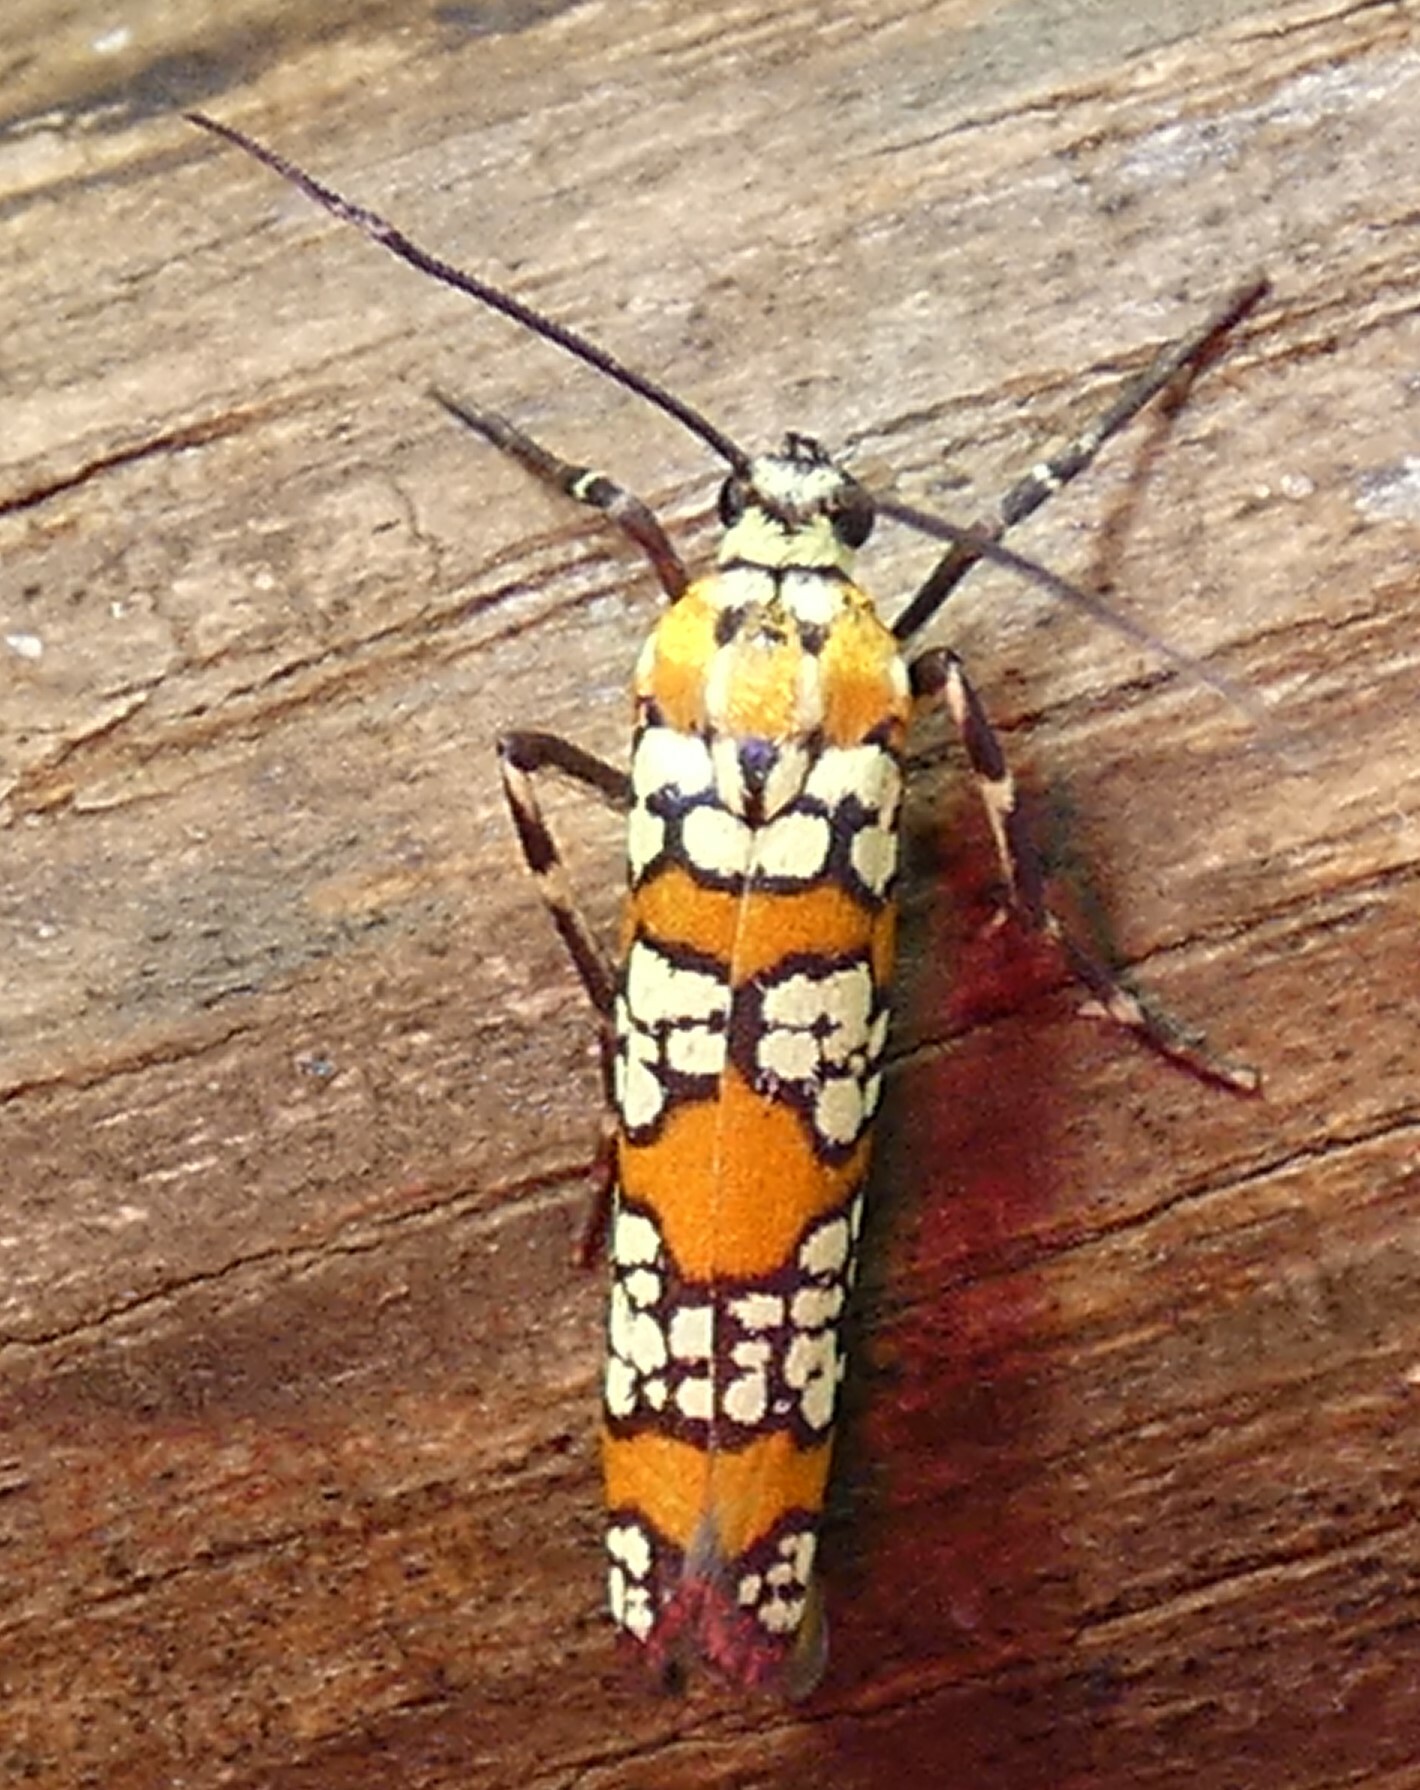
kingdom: Animalia
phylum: Arthropoda
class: Insecta
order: Lepidoptera
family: Attevidae
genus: Atteva
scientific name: Atteva punctella
